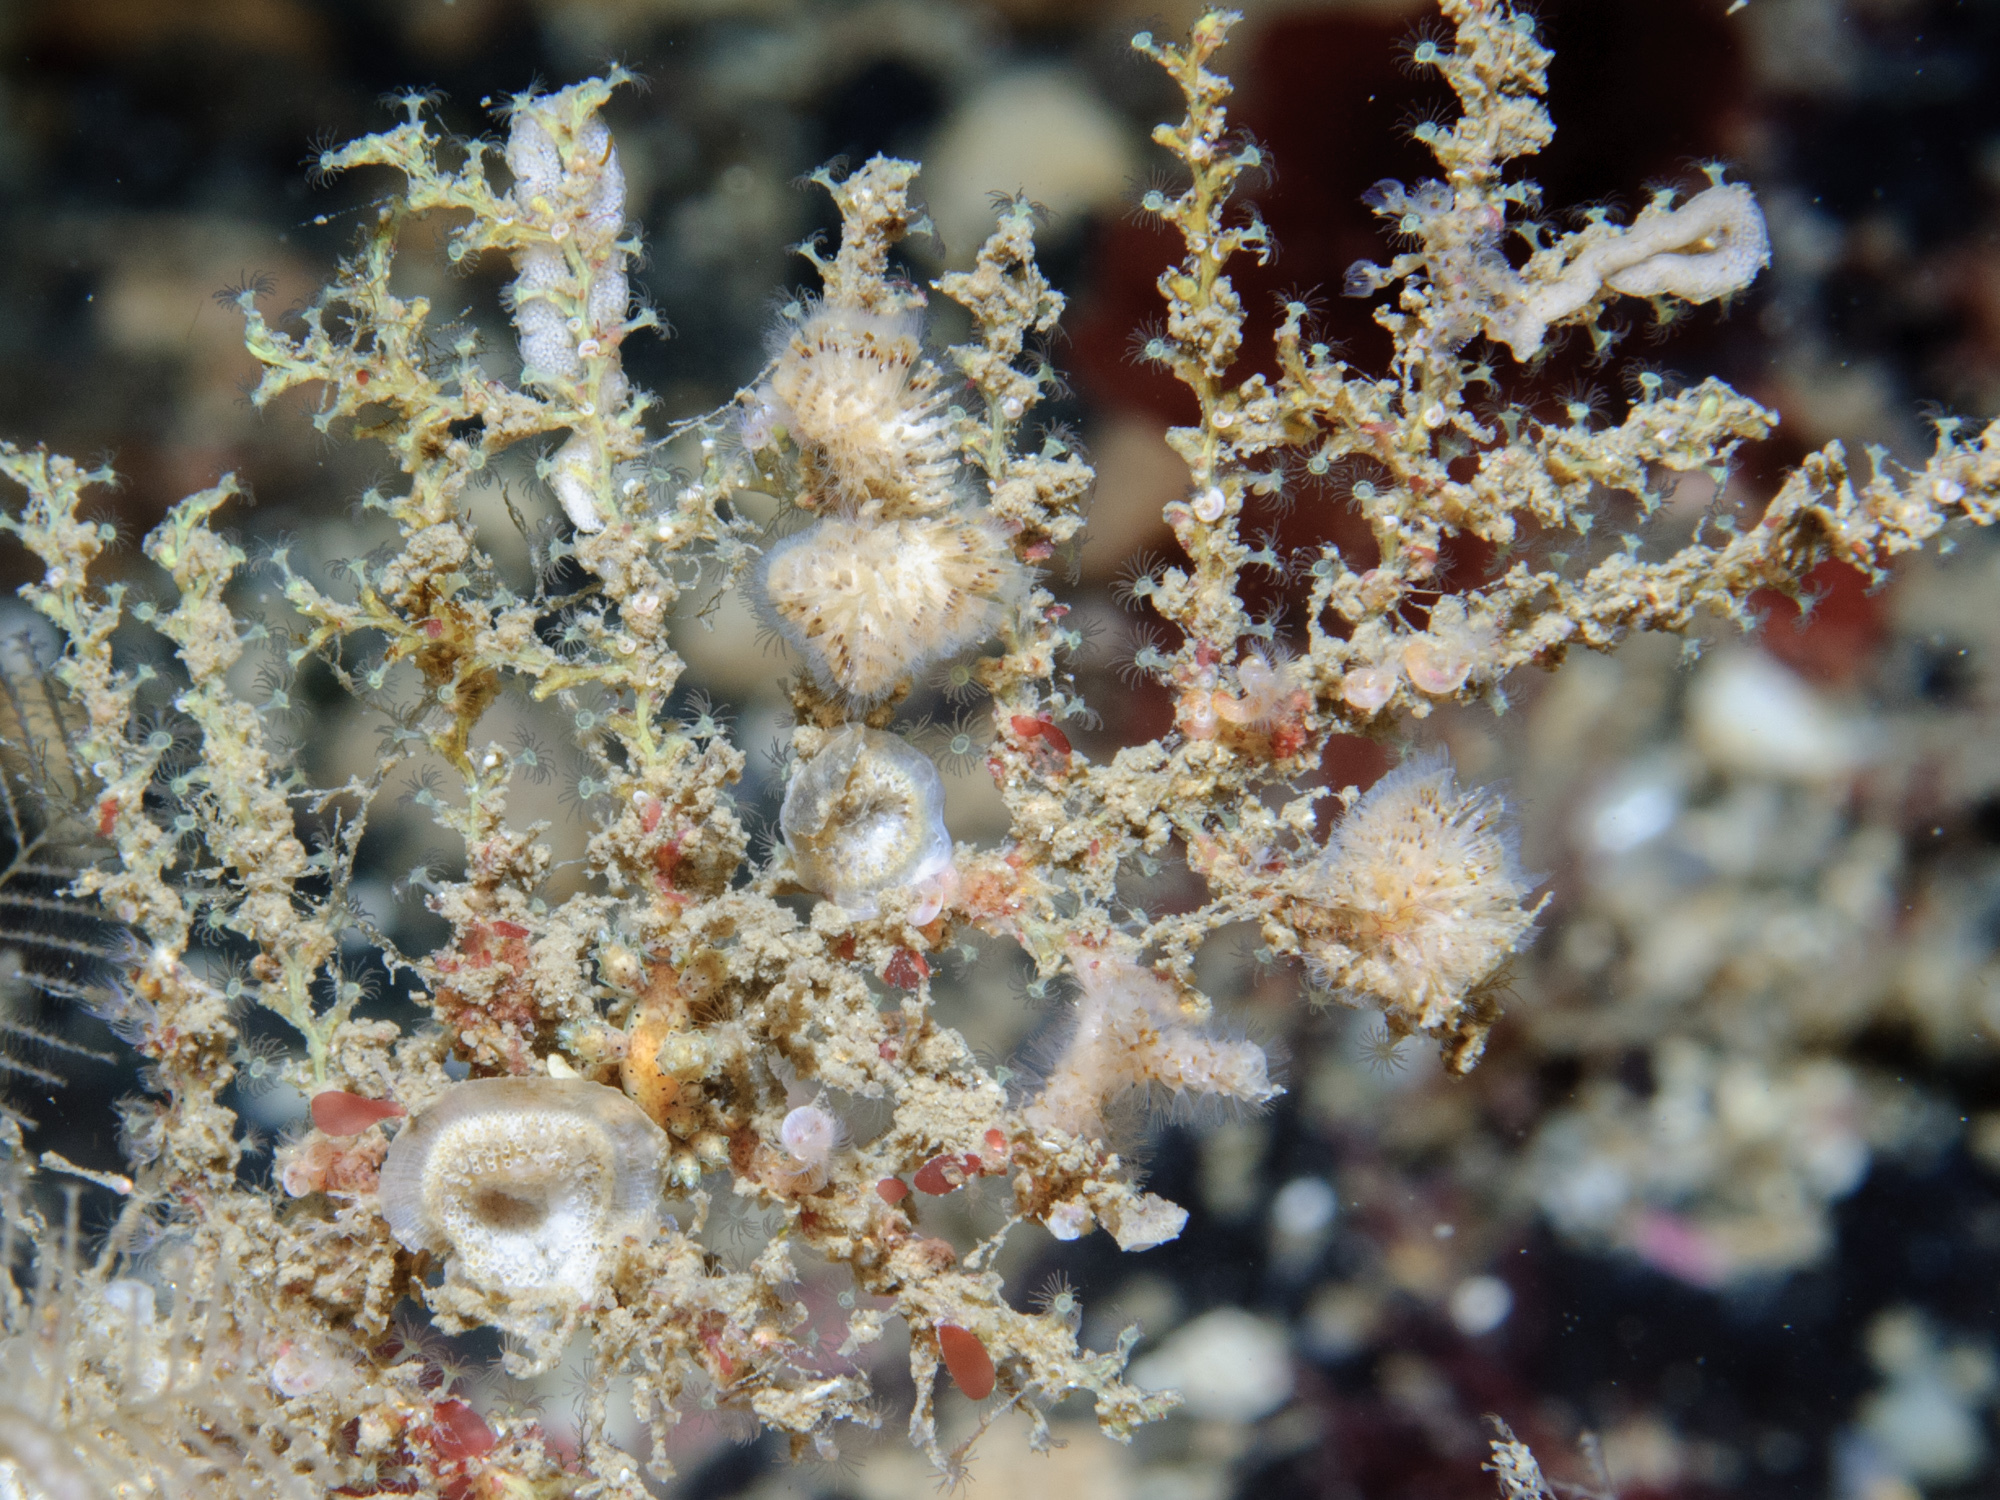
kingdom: Animalia
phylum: Cnidaria
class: Hydrozoa
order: Leptothecata
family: Sertularellidae
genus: Sertularella
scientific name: Sertularella gayi
